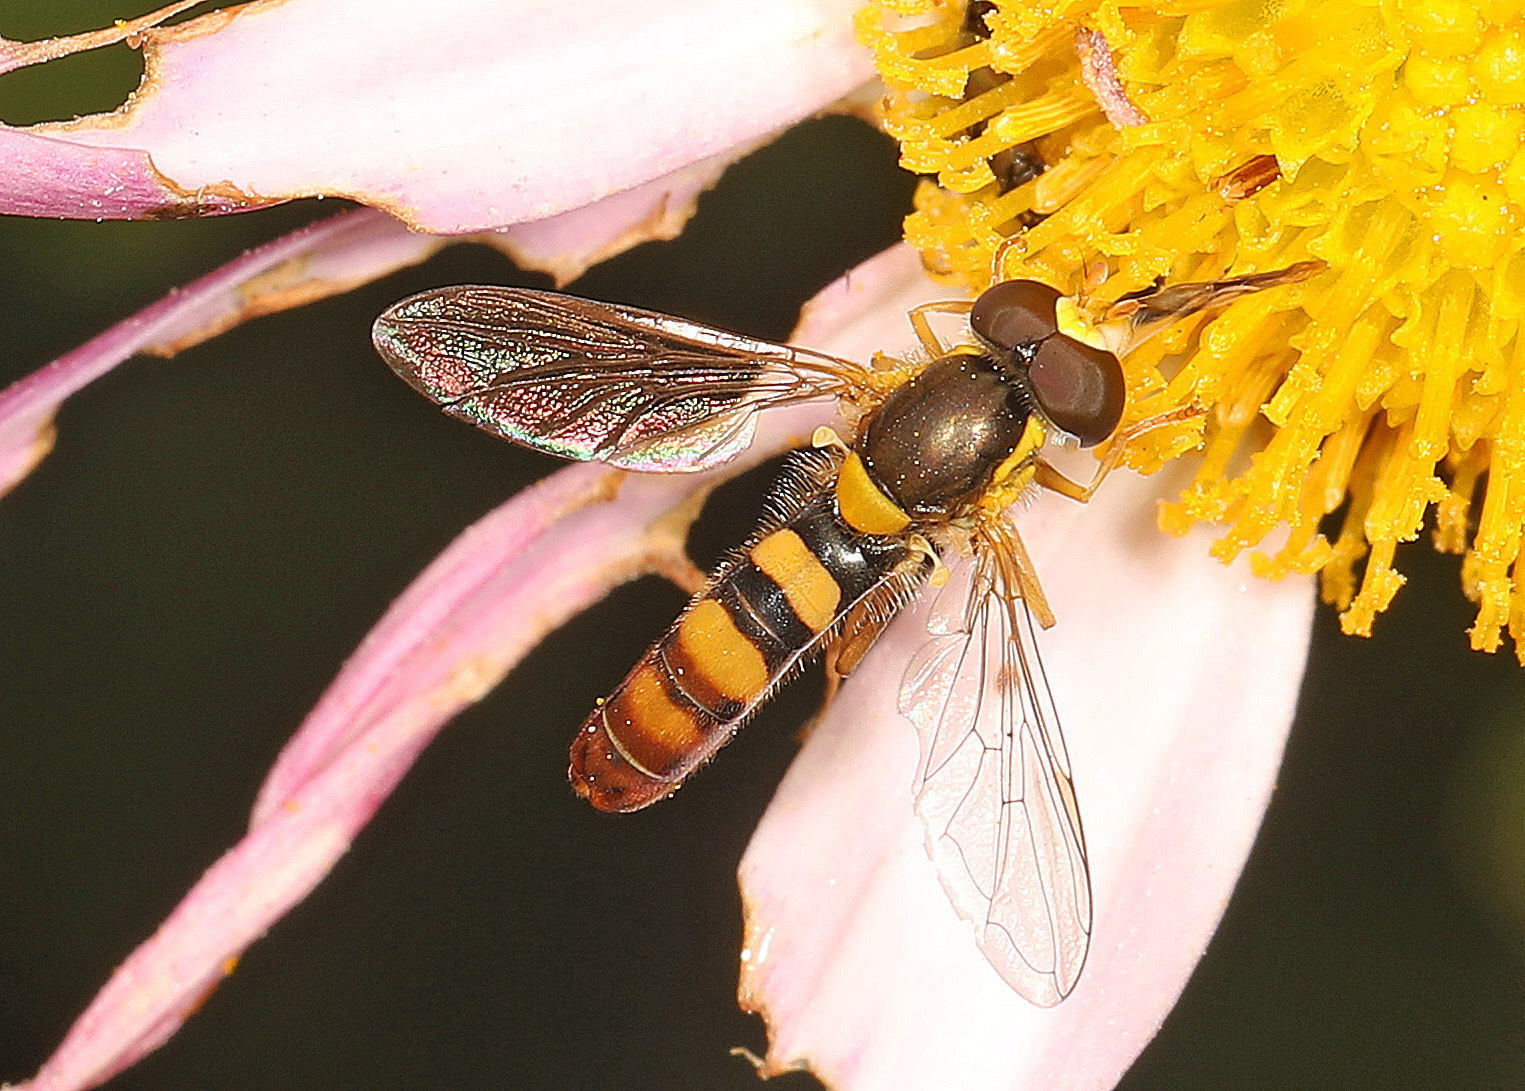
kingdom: Animalia
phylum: Arthropoda
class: Insecta
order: Diptera
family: Syrphidae
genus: Sphaerophoria
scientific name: Sphaerophoria contigua
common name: Tufted globetail
